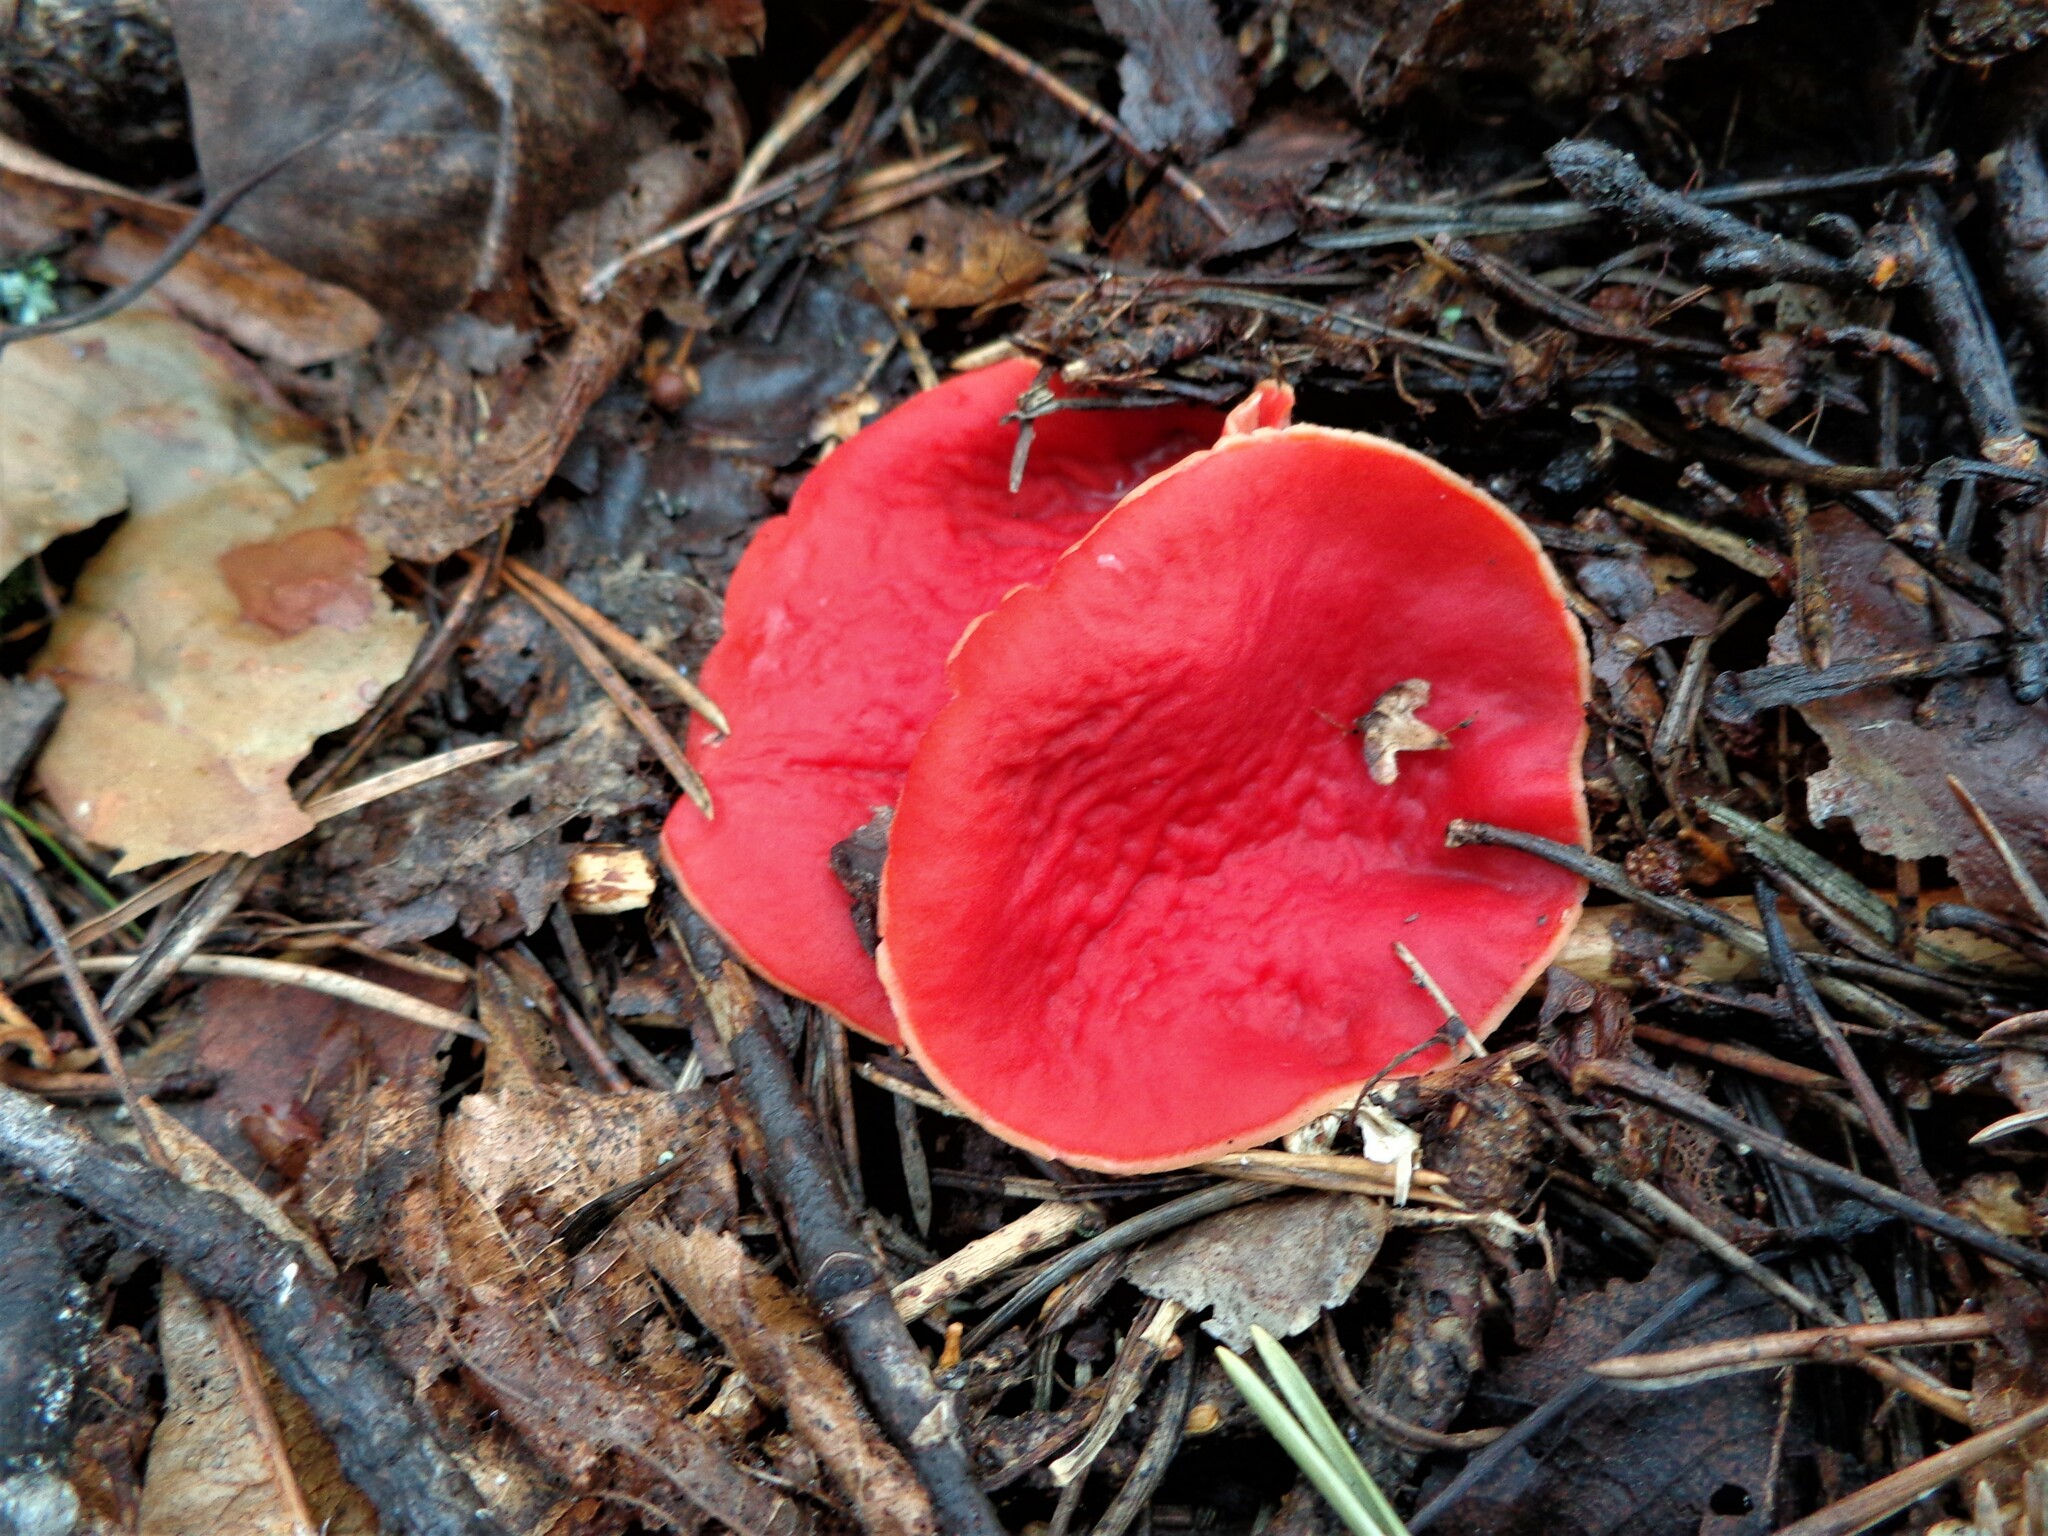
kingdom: Fungi
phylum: Ascomycota
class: Pezizomycetes
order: Pezizales
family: Sarcoscyphaceae
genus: Sarcoscypha
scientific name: Sarcoscypha austriaca
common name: Scarlet elfcup
